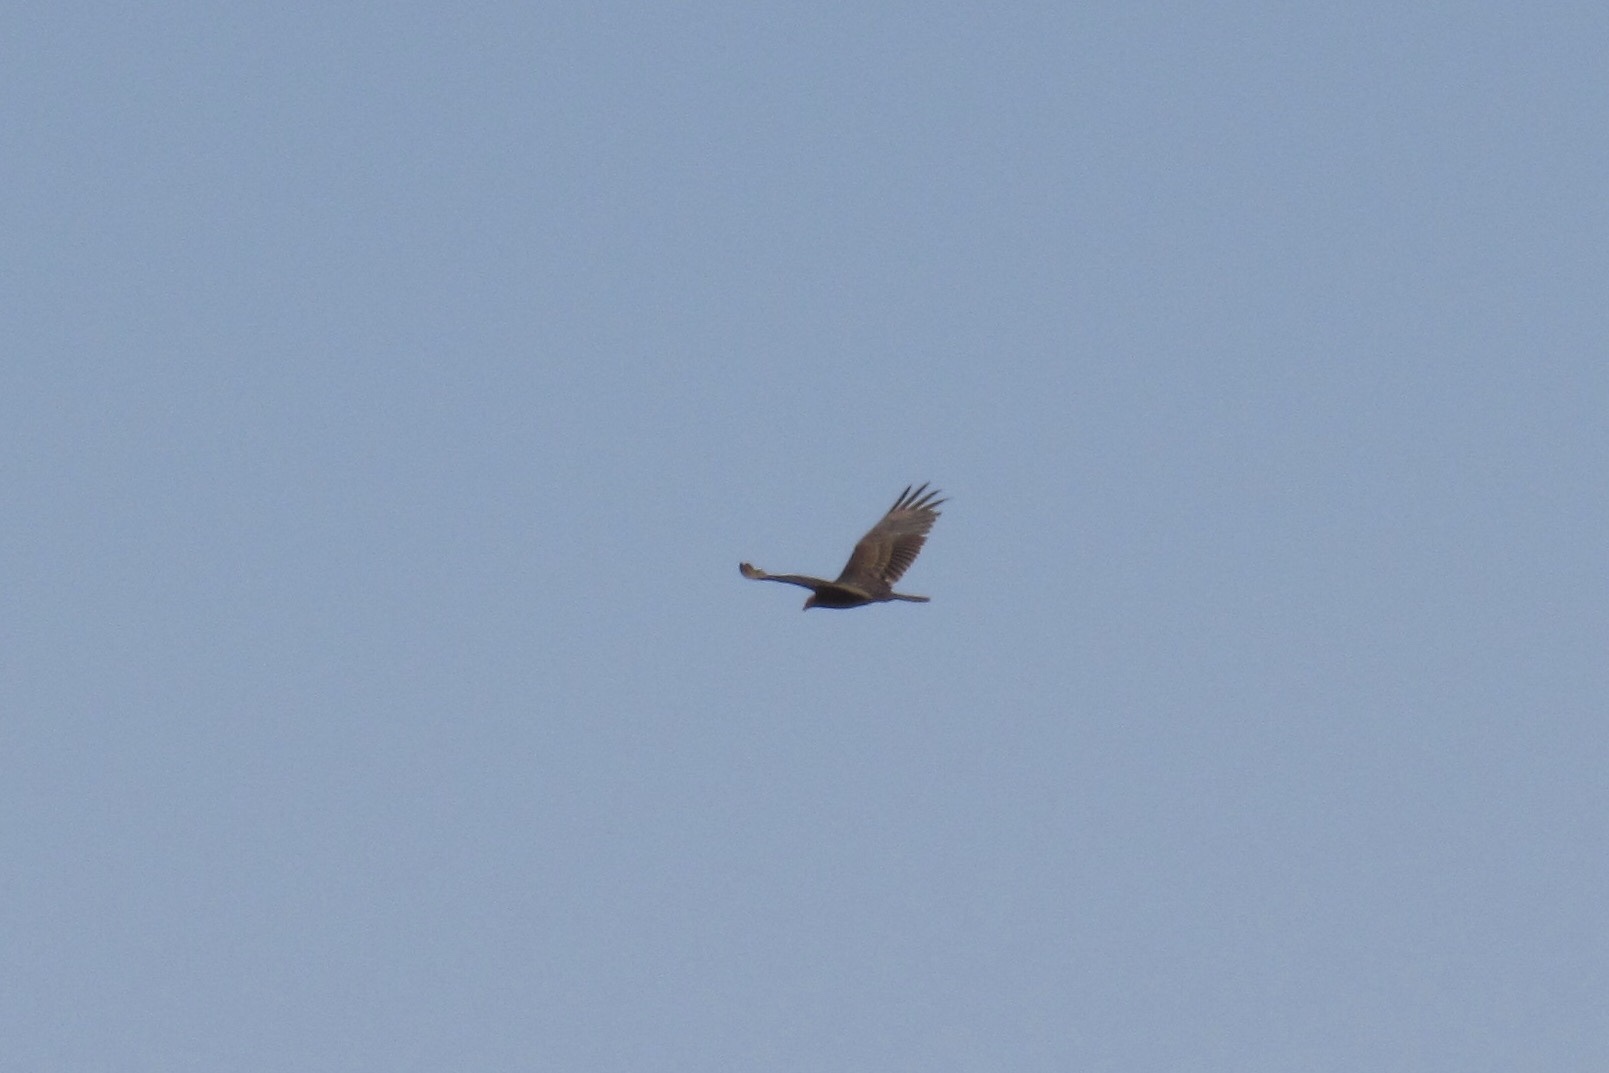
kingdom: Animalia
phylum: Chordata
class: Aves
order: Accipitriformes
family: Cathartidae
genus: Cathartes
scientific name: Cathartes aura
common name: Turkey vulture
